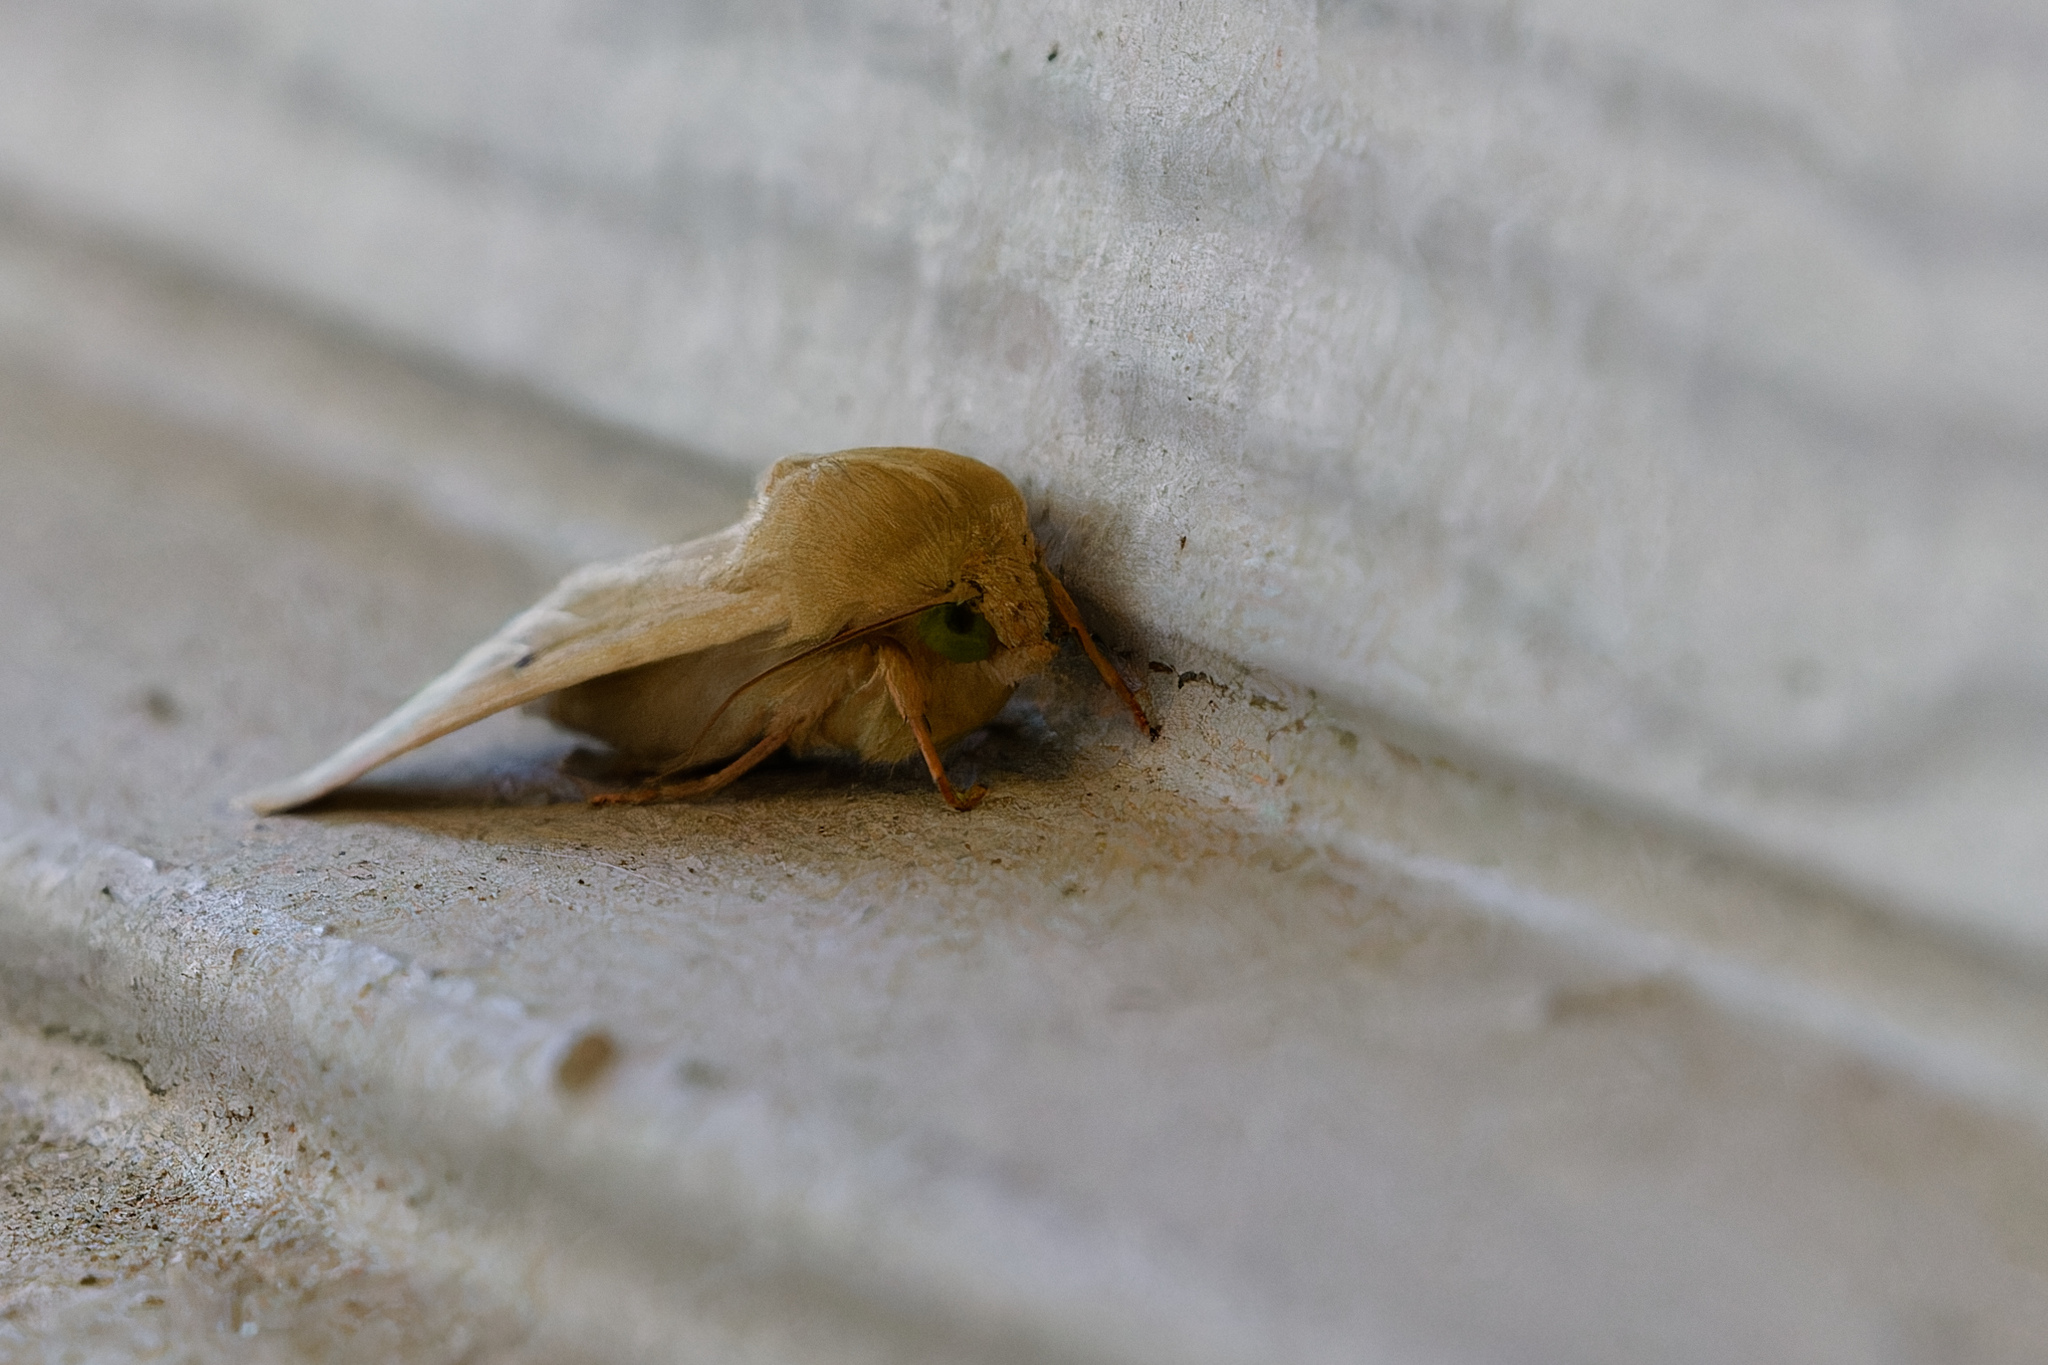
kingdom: Animalia
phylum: Arthropoda
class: Insecta
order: Lepidoptera
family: Noctuidae
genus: Helicoverpa
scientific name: Helicoverpa zea
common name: Bollworm
